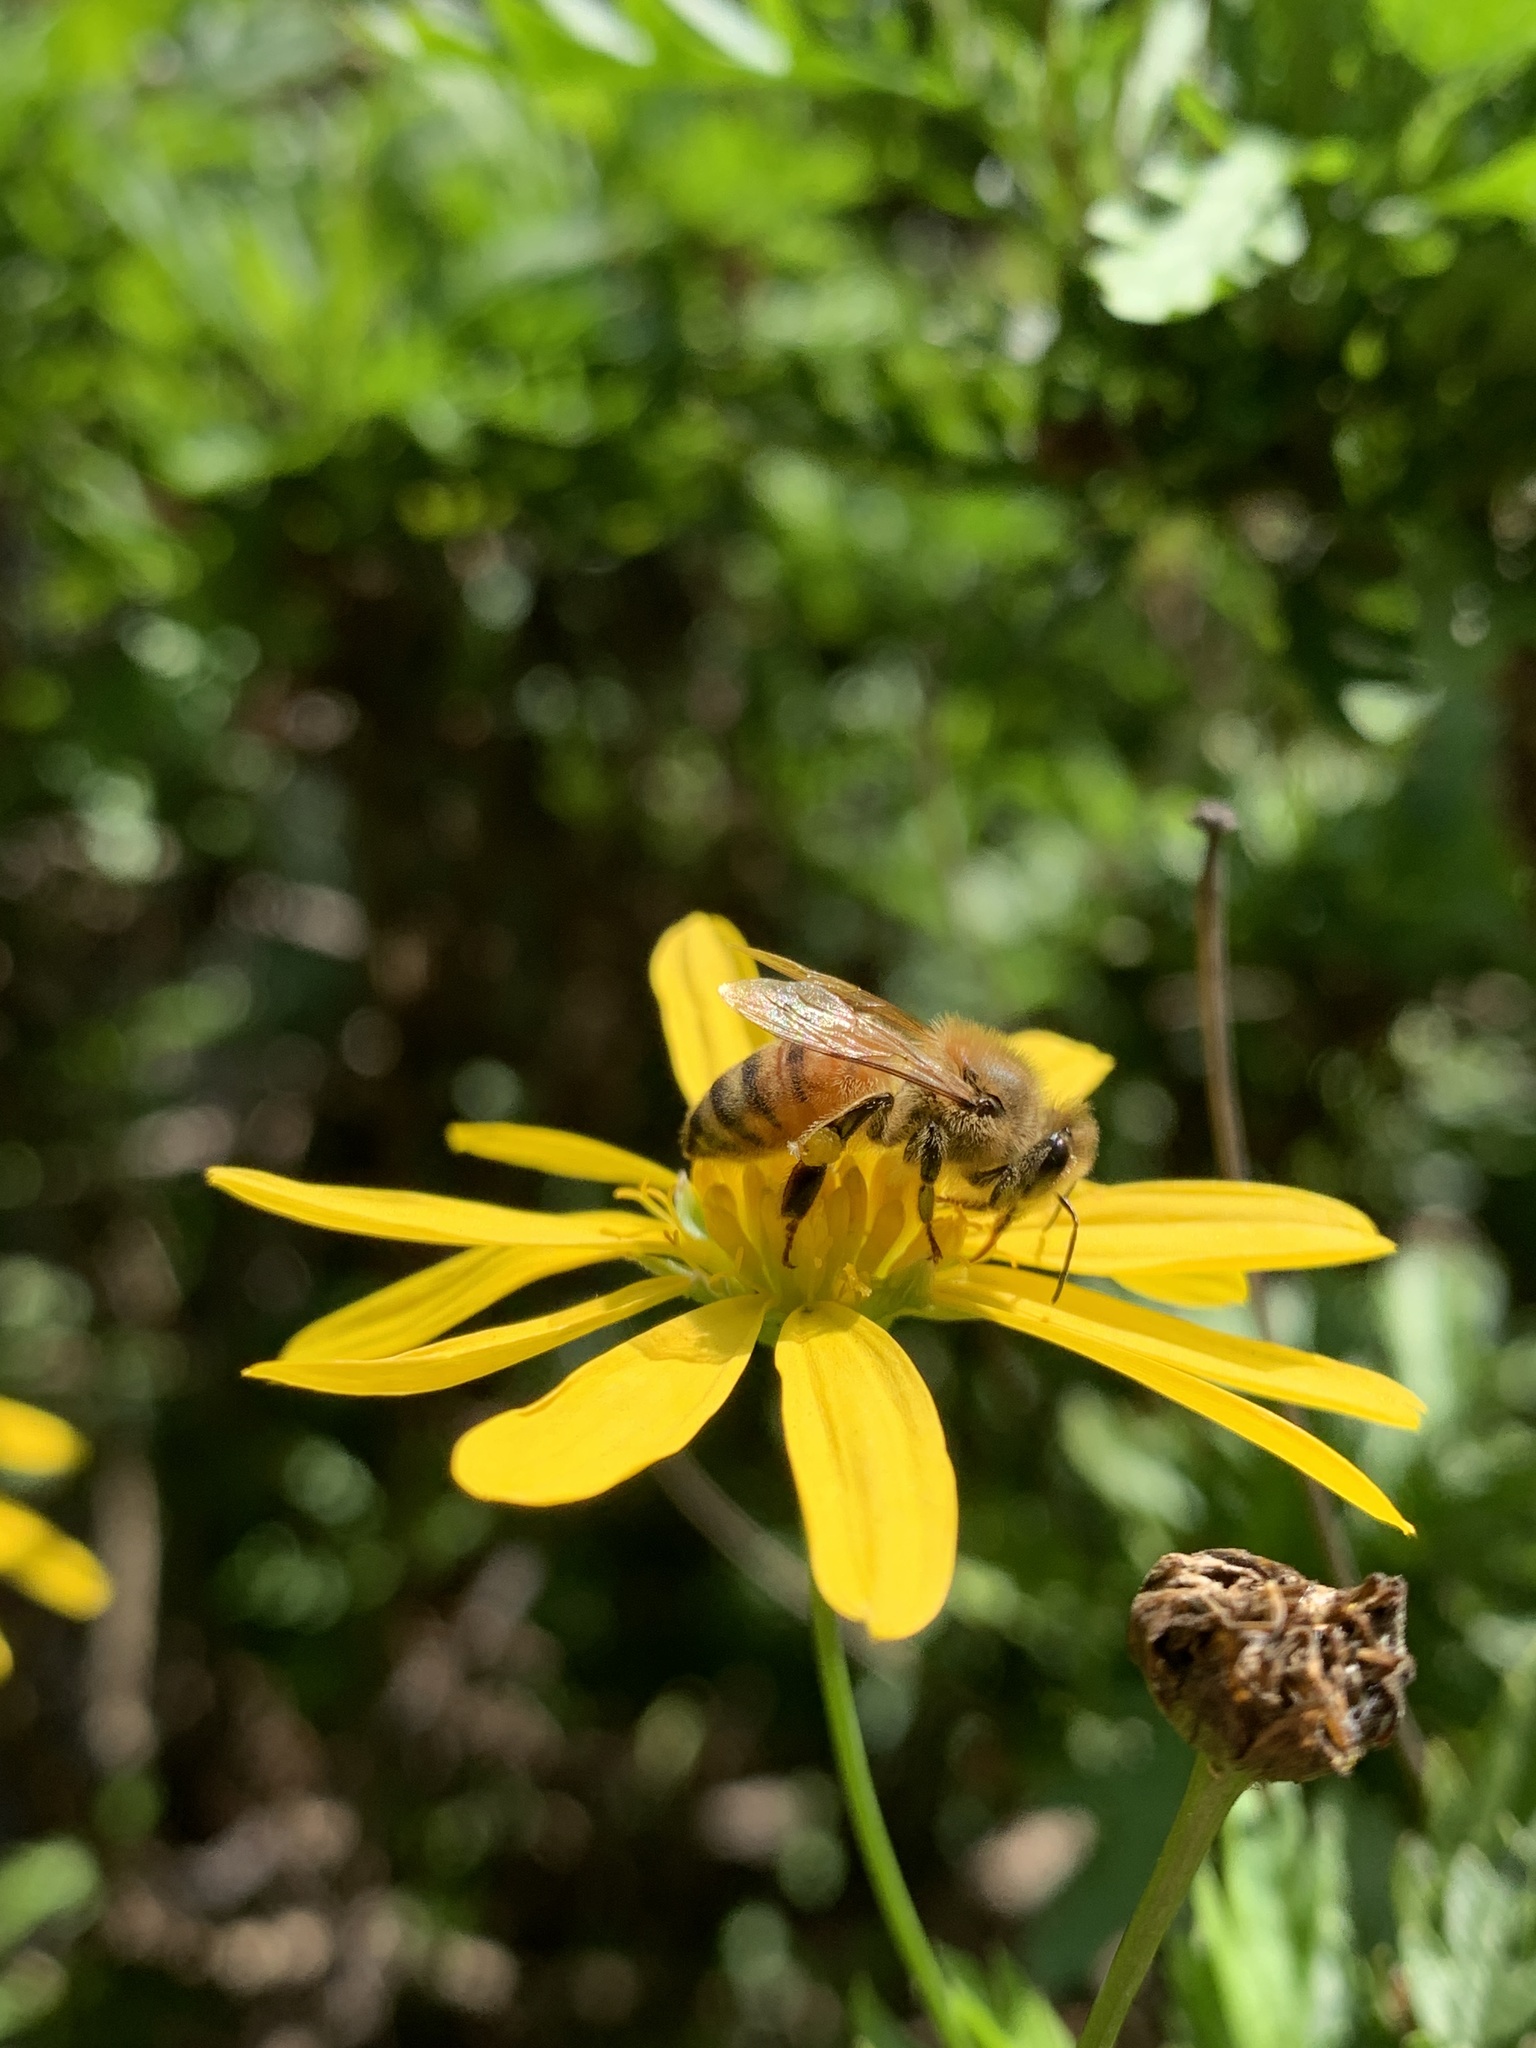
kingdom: Animalia
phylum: Arthropoda
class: Insecta
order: Hymenoptera
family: Apidae
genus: Apis
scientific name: Apis mellifera
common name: Honey bee
